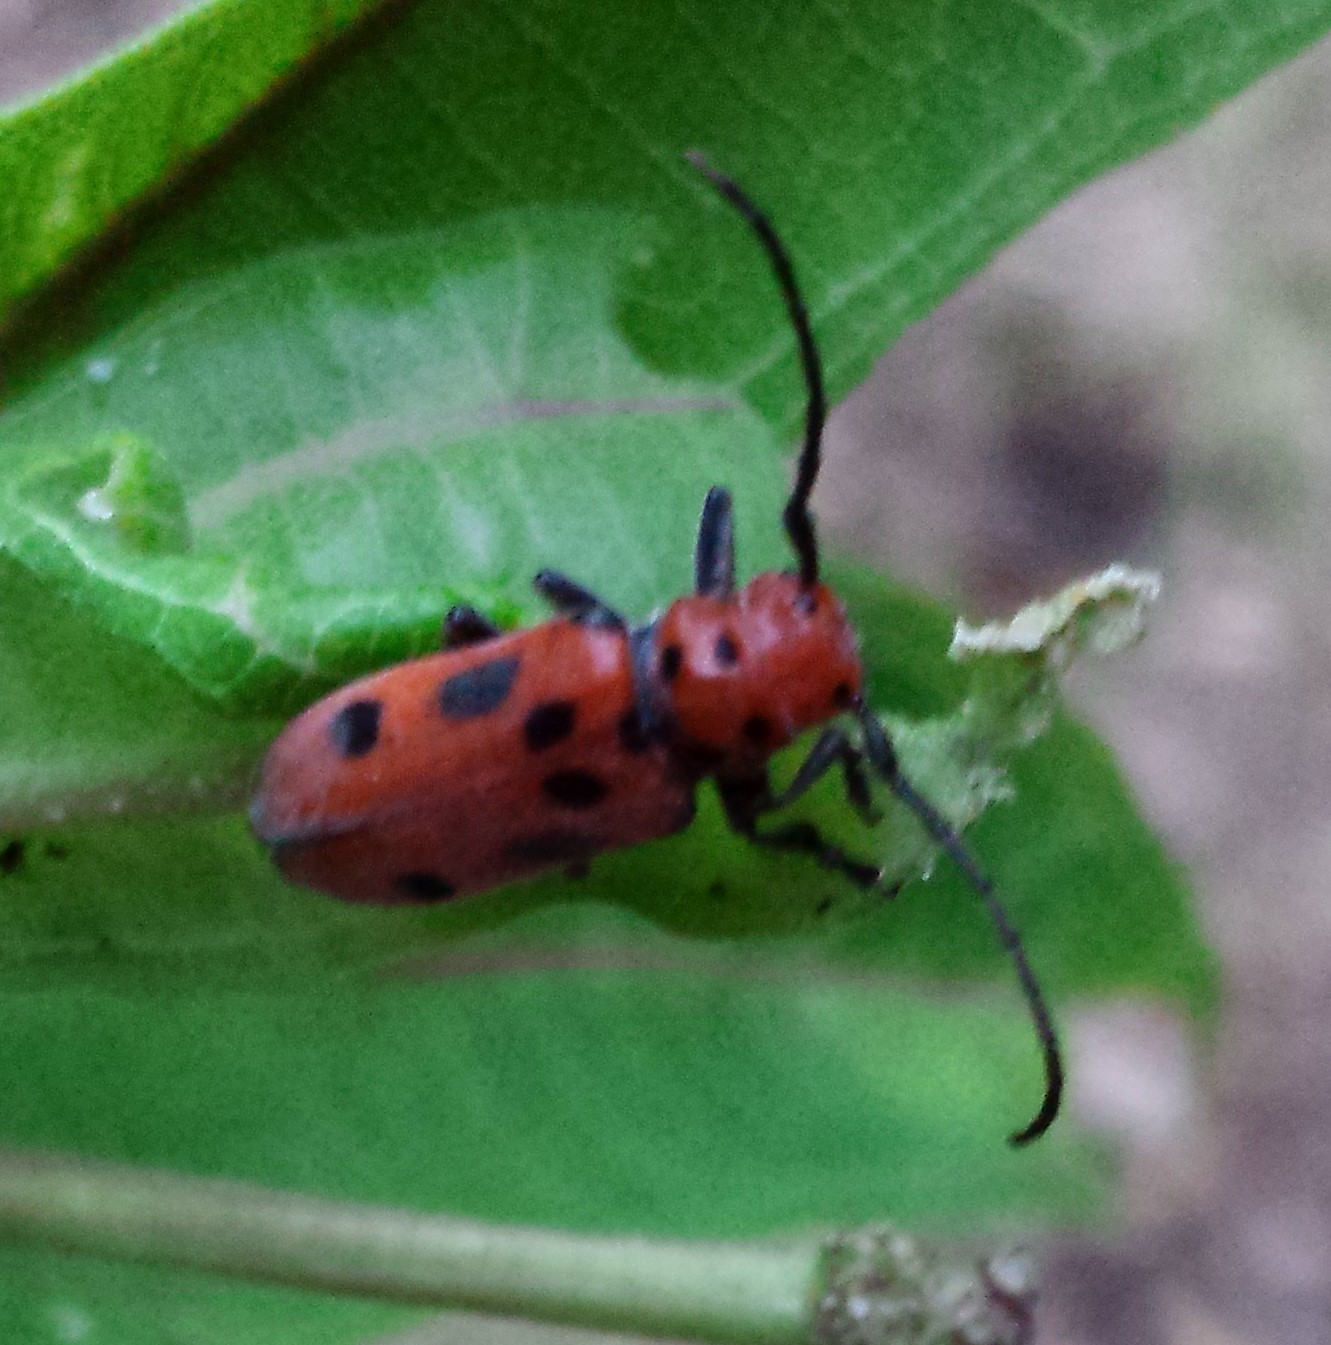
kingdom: Animalia
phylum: Arthropoda
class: Insecta
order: Coleoptera
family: Cerambycidae
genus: Tetraopes
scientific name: Tetraopes tetrophthalmus
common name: Red milkweed beetle
